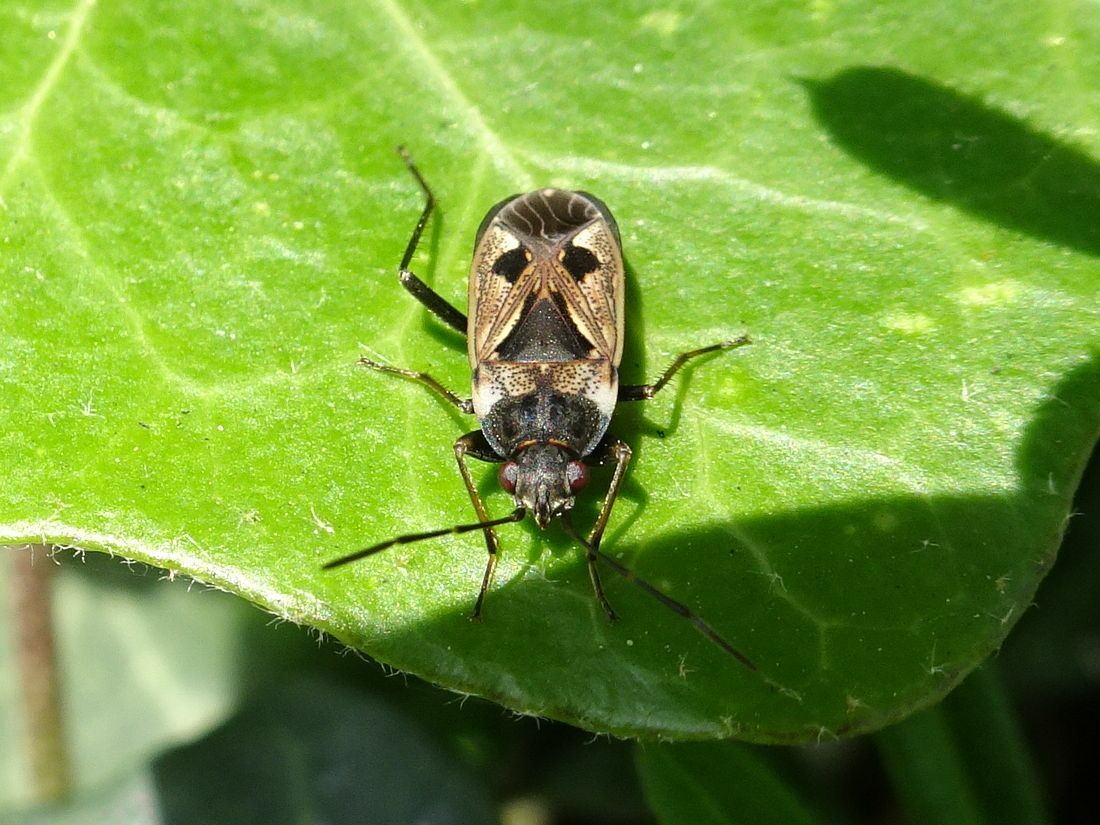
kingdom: Animalia
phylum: Arthropoda
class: Insecta
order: Hemiptera
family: Rhyparochromidae
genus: Rhyparochromus
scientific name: Rhyparochromus vulgaris
